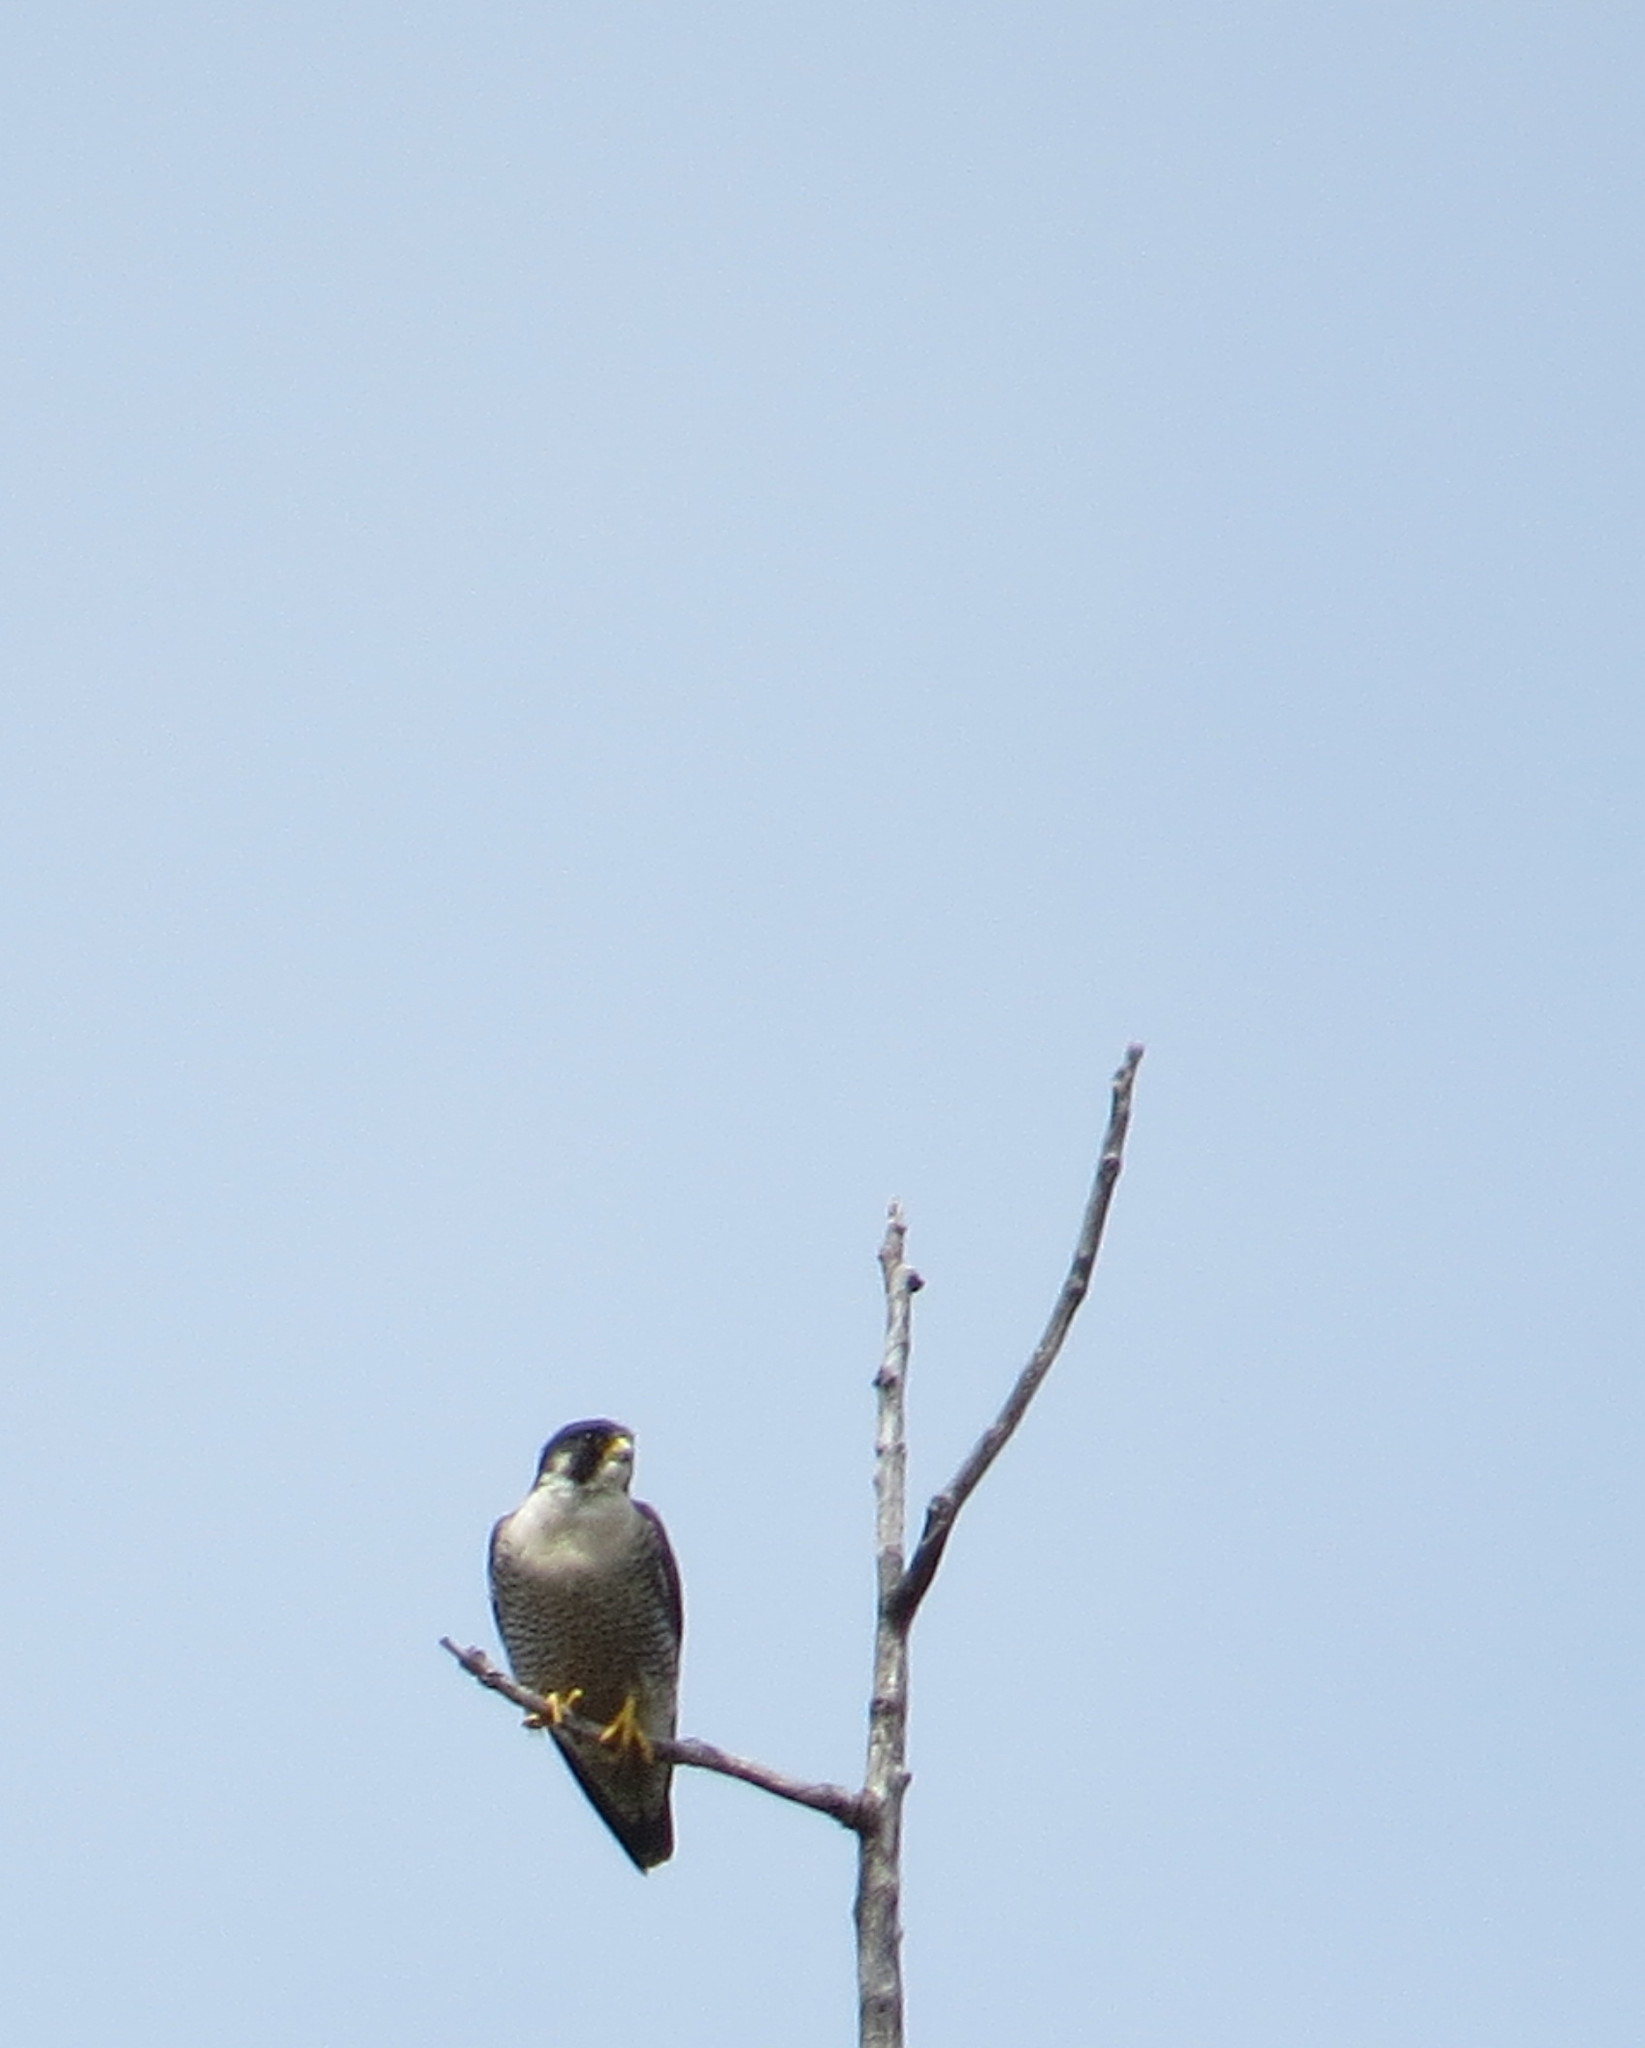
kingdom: Animalia
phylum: Chordata
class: Aves
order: Falconiformes
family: Falconidae
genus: Falco
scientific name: Falco peregrinus
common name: Peregrine falcon
